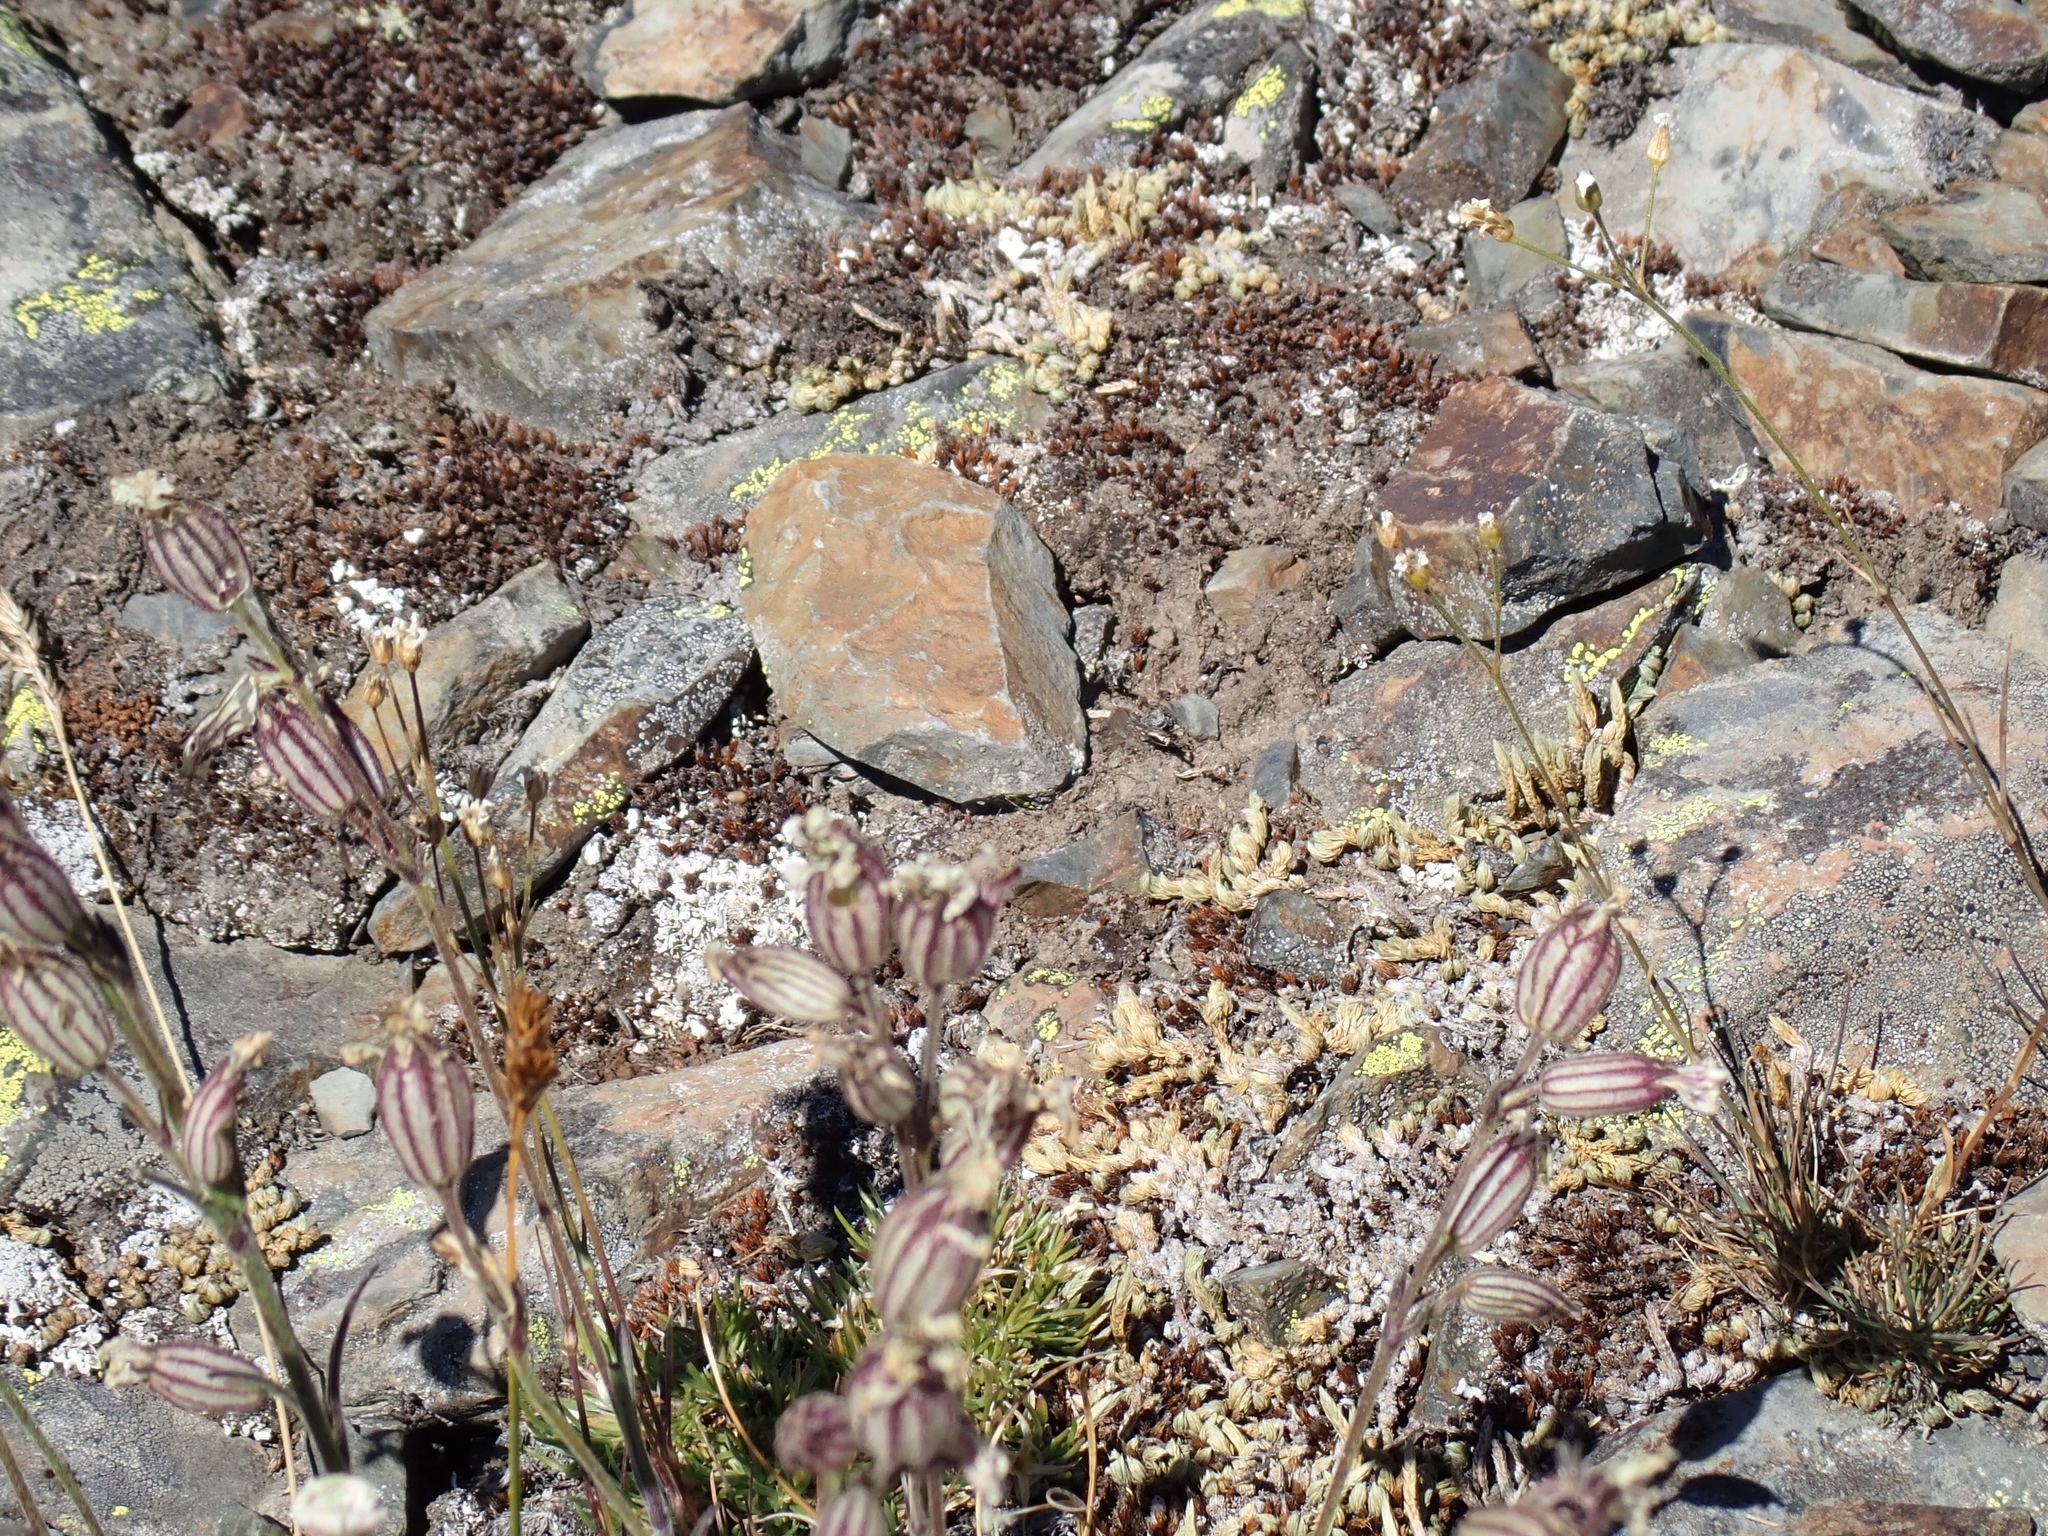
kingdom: Plantae
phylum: Tracheophyta
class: Magnoliopsida
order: Caryophyllales
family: Caryophyllaceae
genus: Silene
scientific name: Silene parryi
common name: Parry's campion
